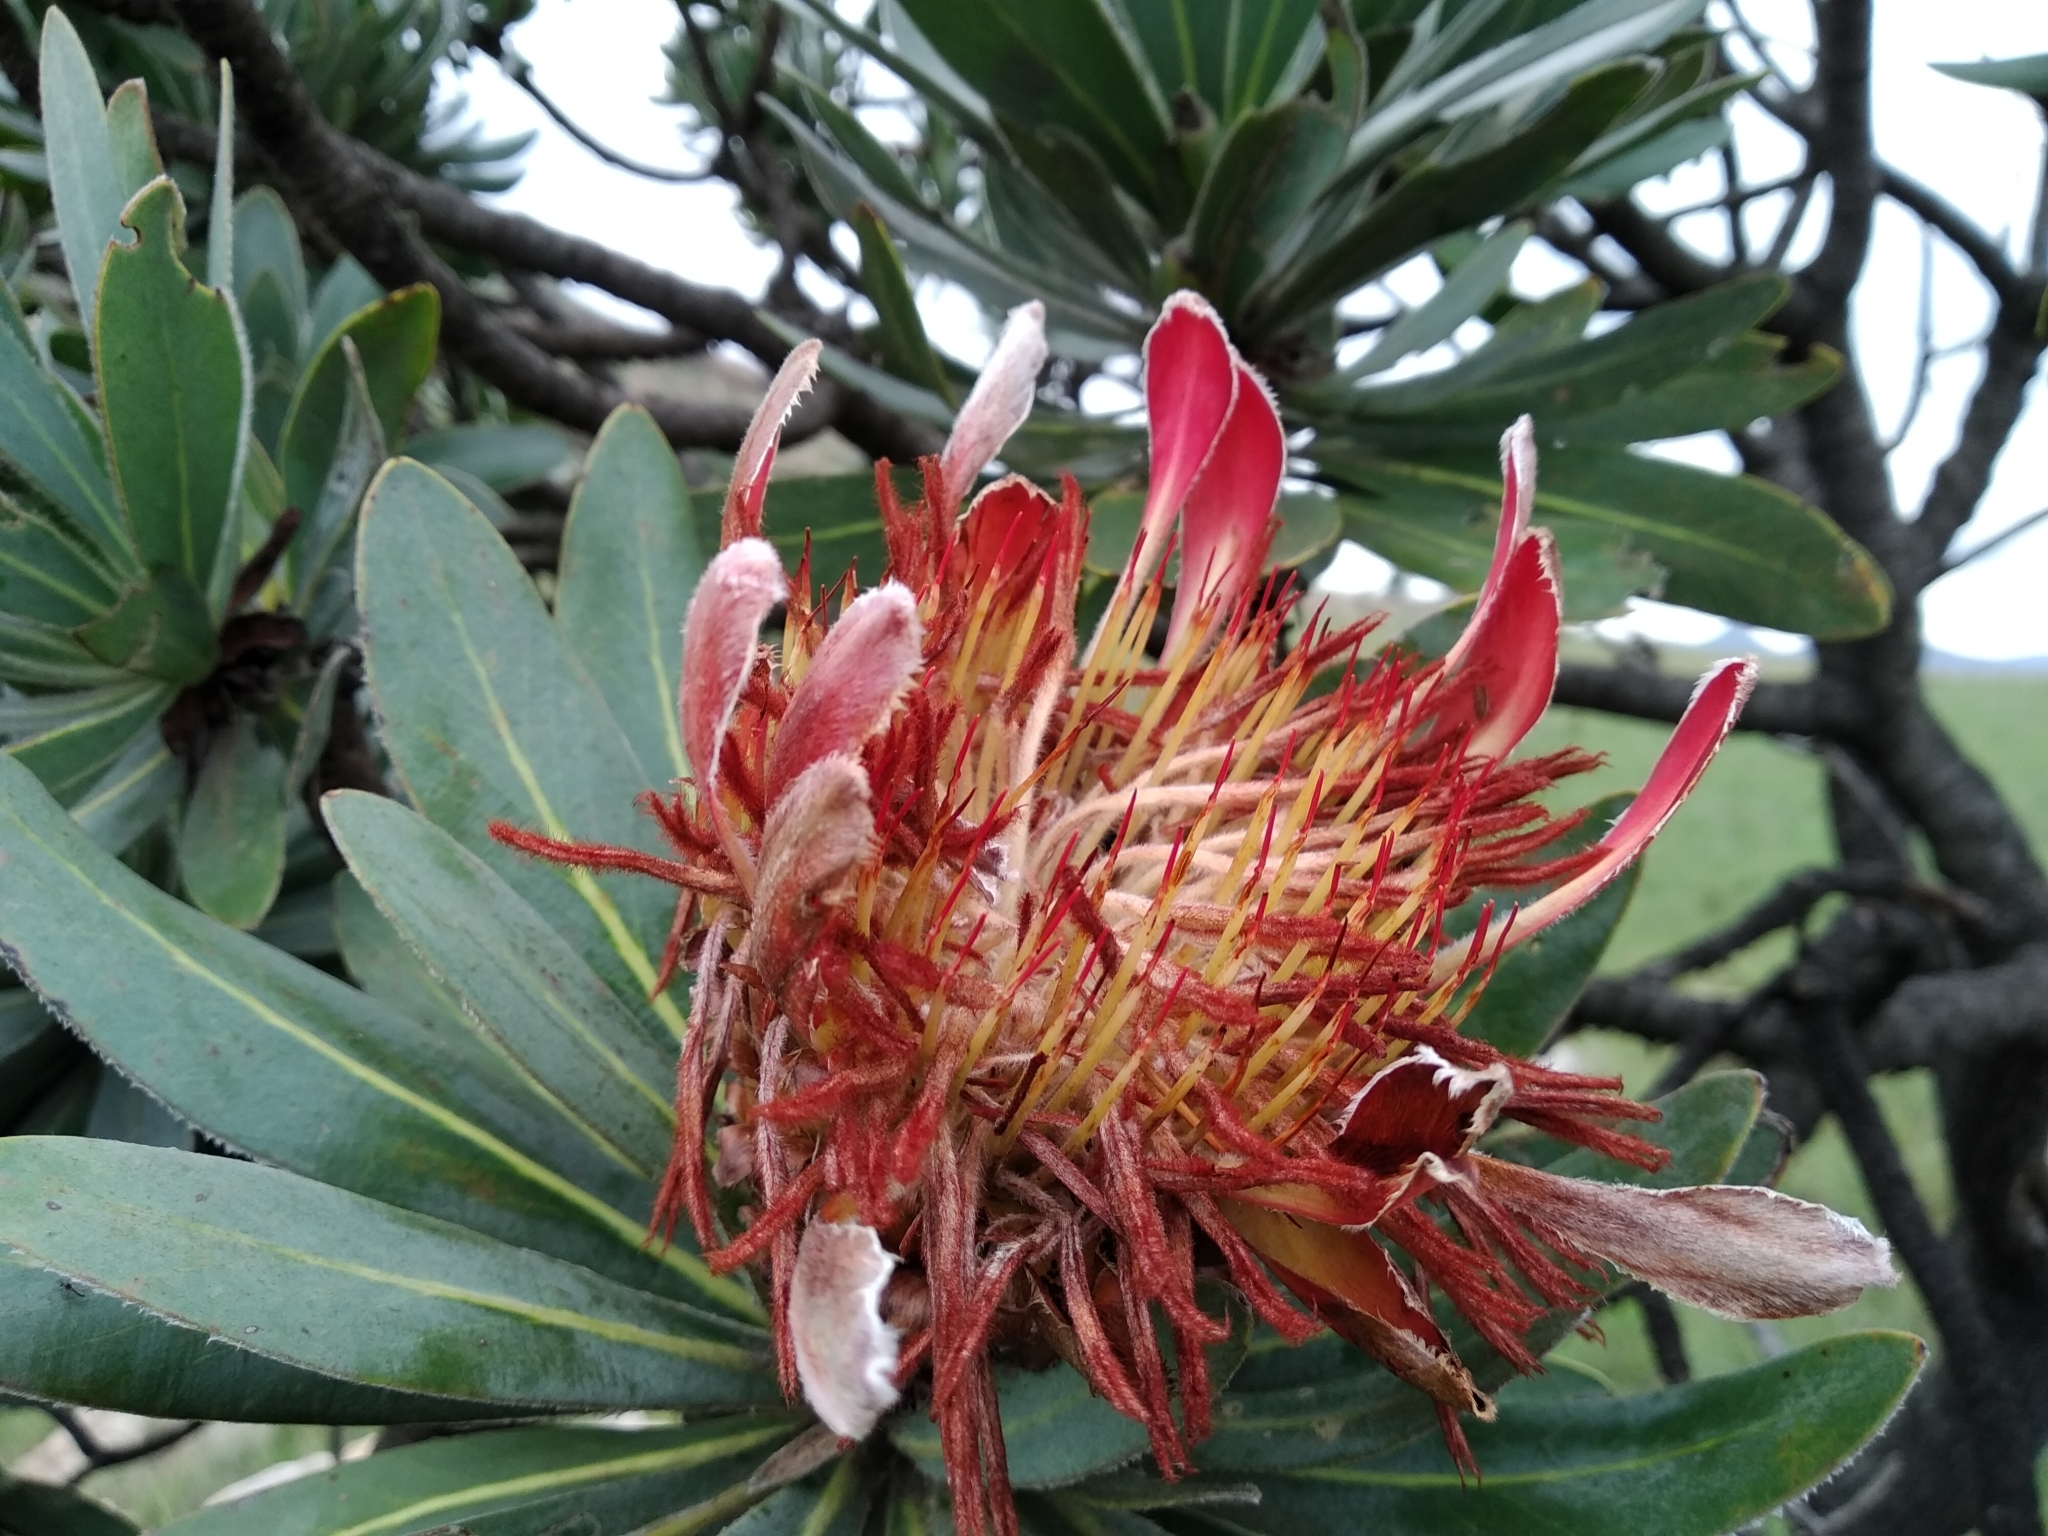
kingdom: Plantae
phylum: Tracheophyta
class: Magnoliopsida
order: Proteales
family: Proteaceae
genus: Protea
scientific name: Protea roupelliae
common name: Silver sugarbush
